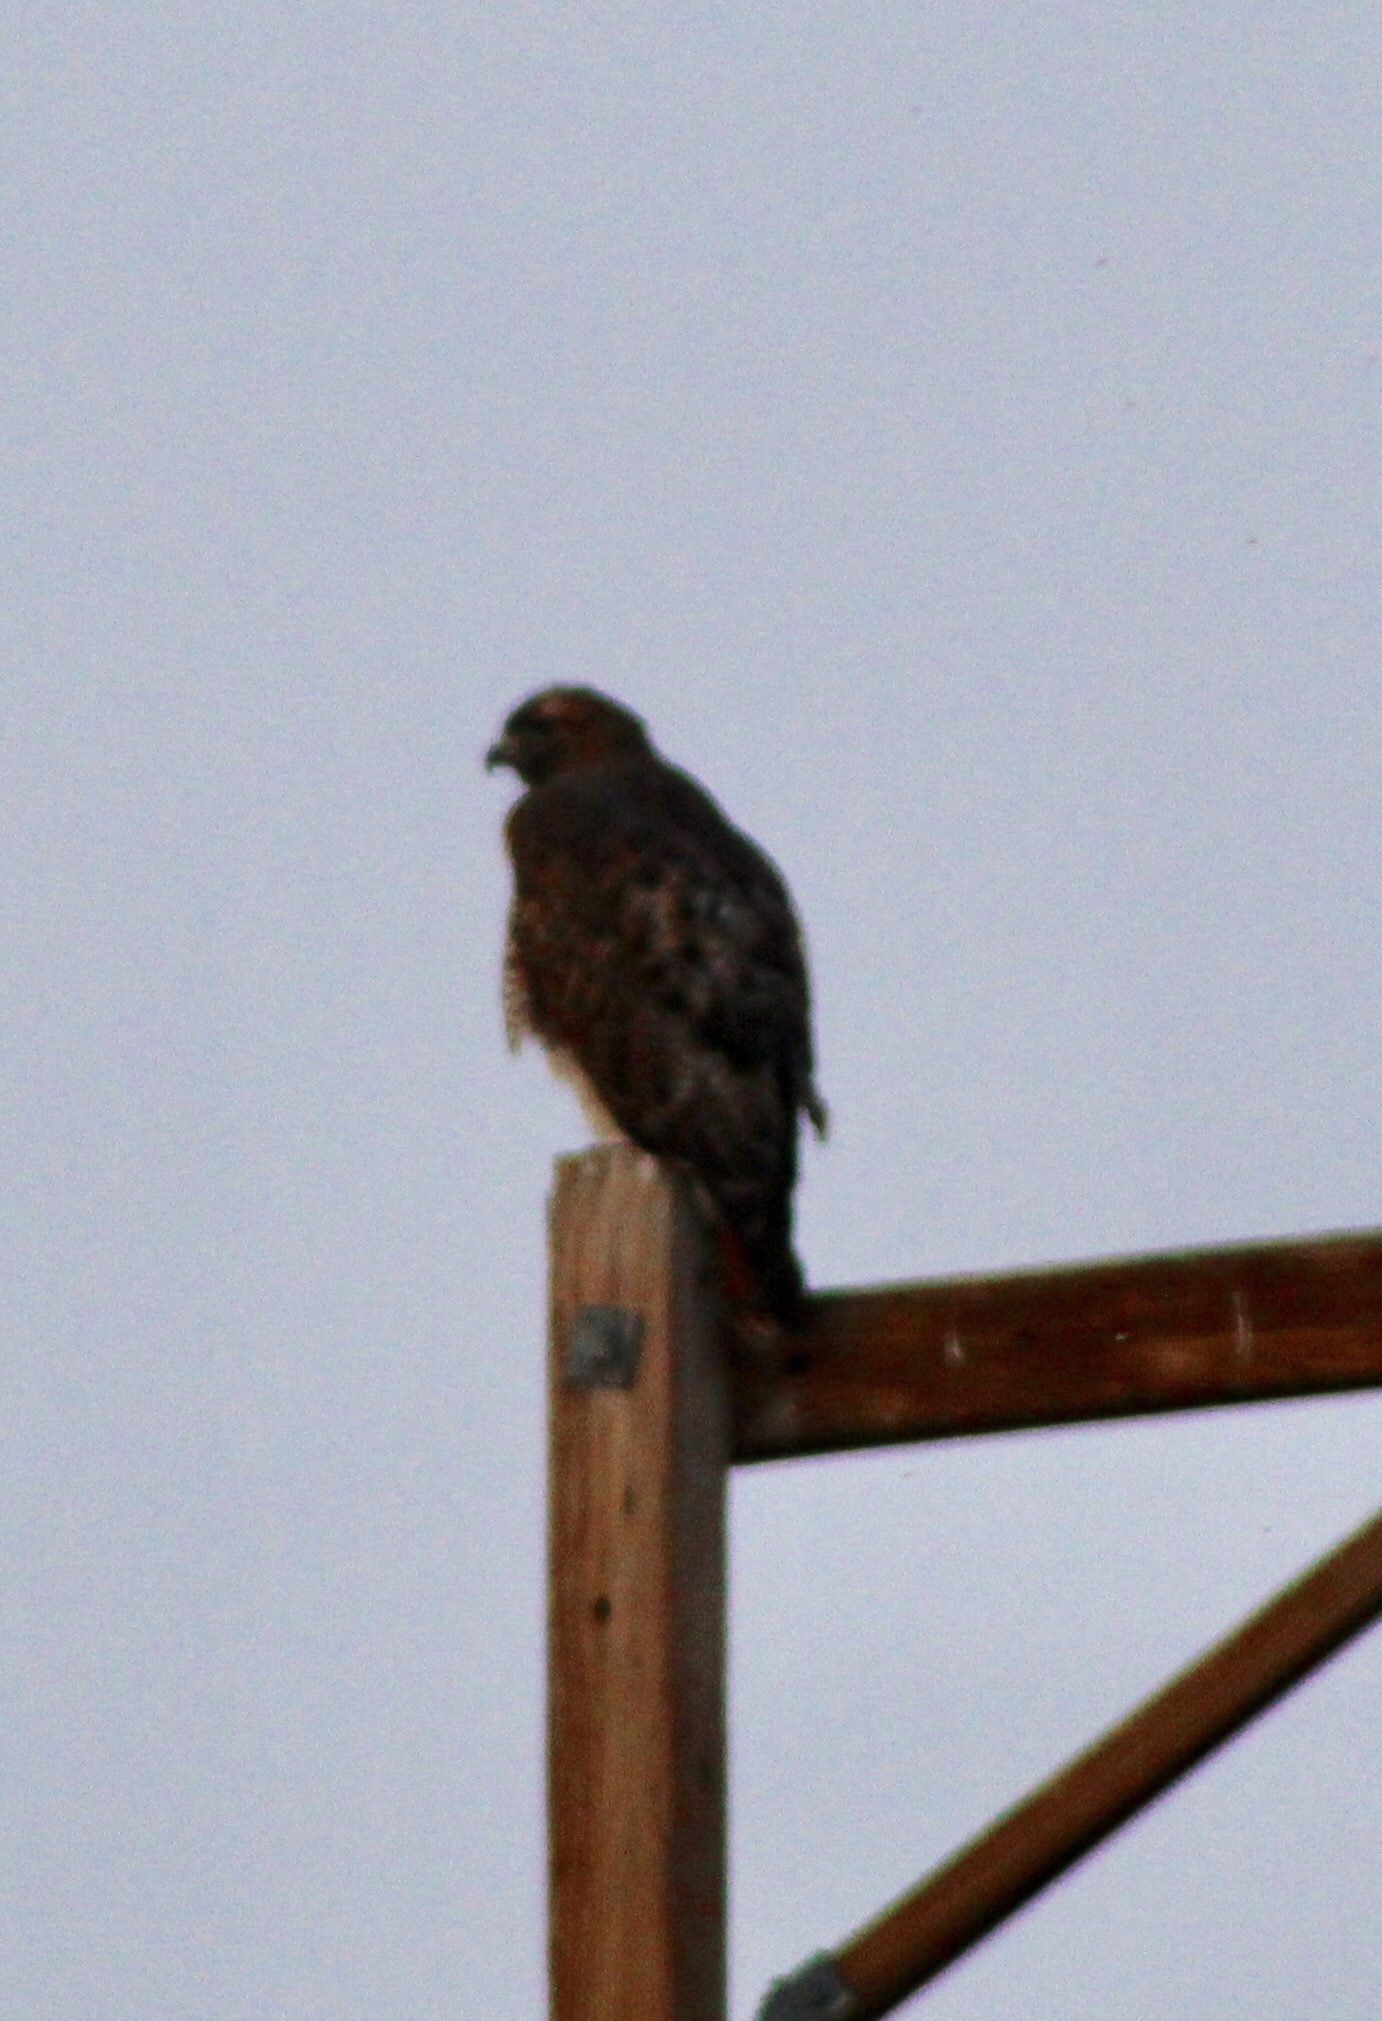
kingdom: Animalia
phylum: Chordata
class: Aves
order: Accipitriformes
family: Accipitridae
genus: Buteo
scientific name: Buteo jamaicensis
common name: Red-tailed hawk
